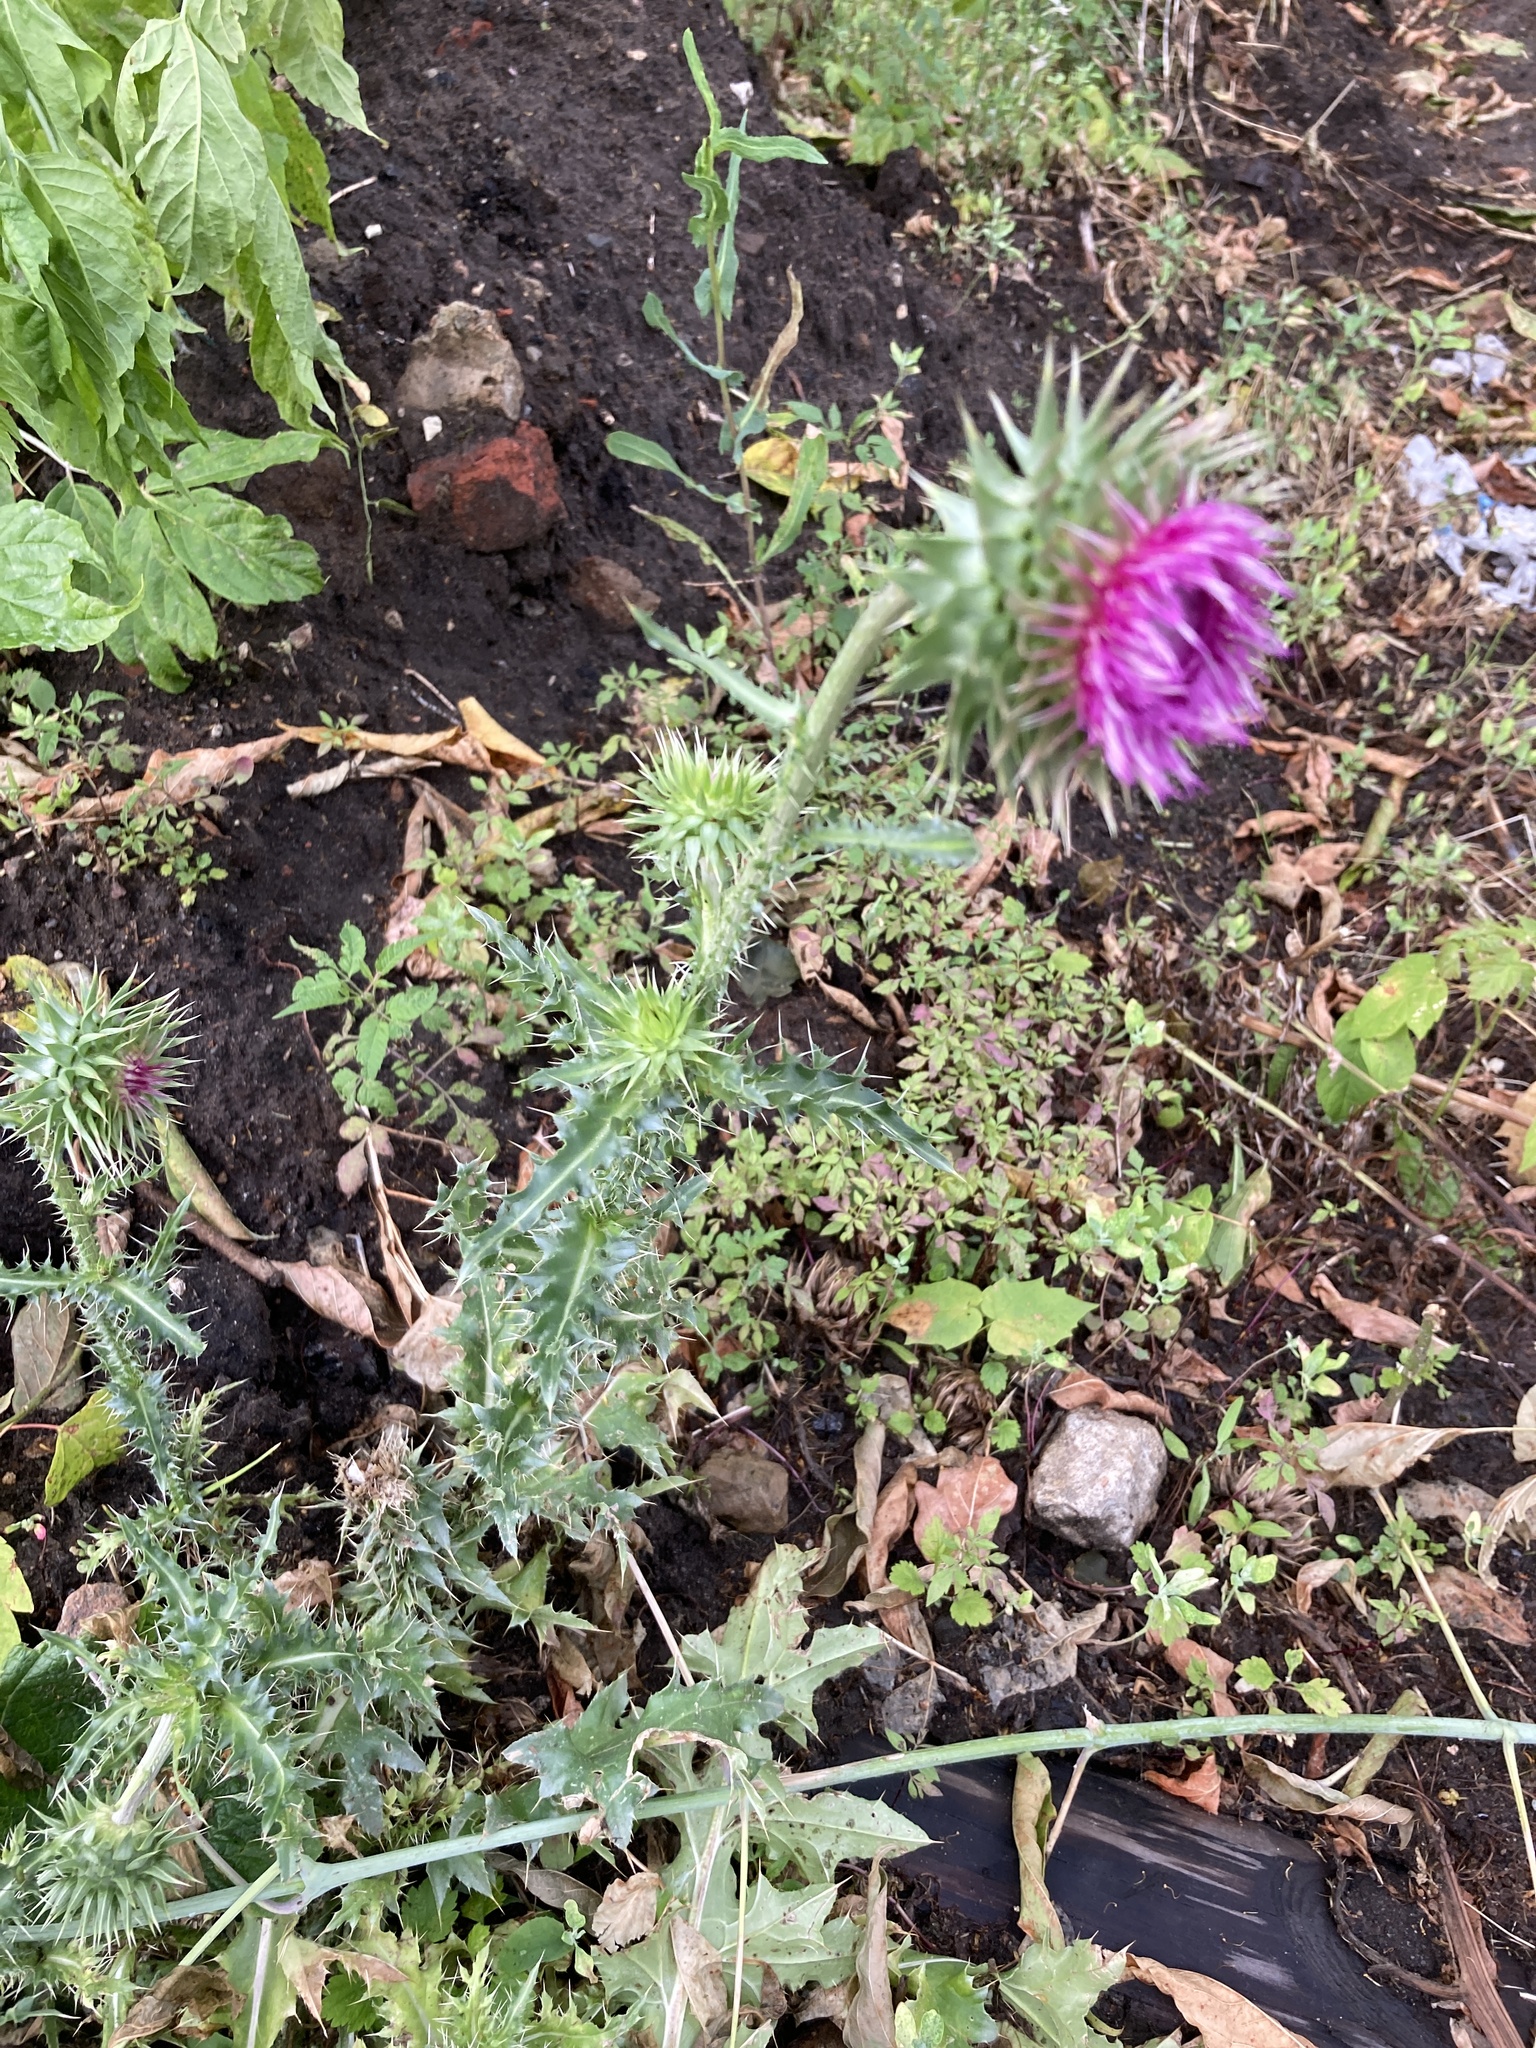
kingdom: Plantae
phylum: Tracheophyta
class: Magnoliopsida
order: Asterales
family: Asteraceae
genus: Carduus
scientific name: Carduus nutans
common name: Musk thistle
